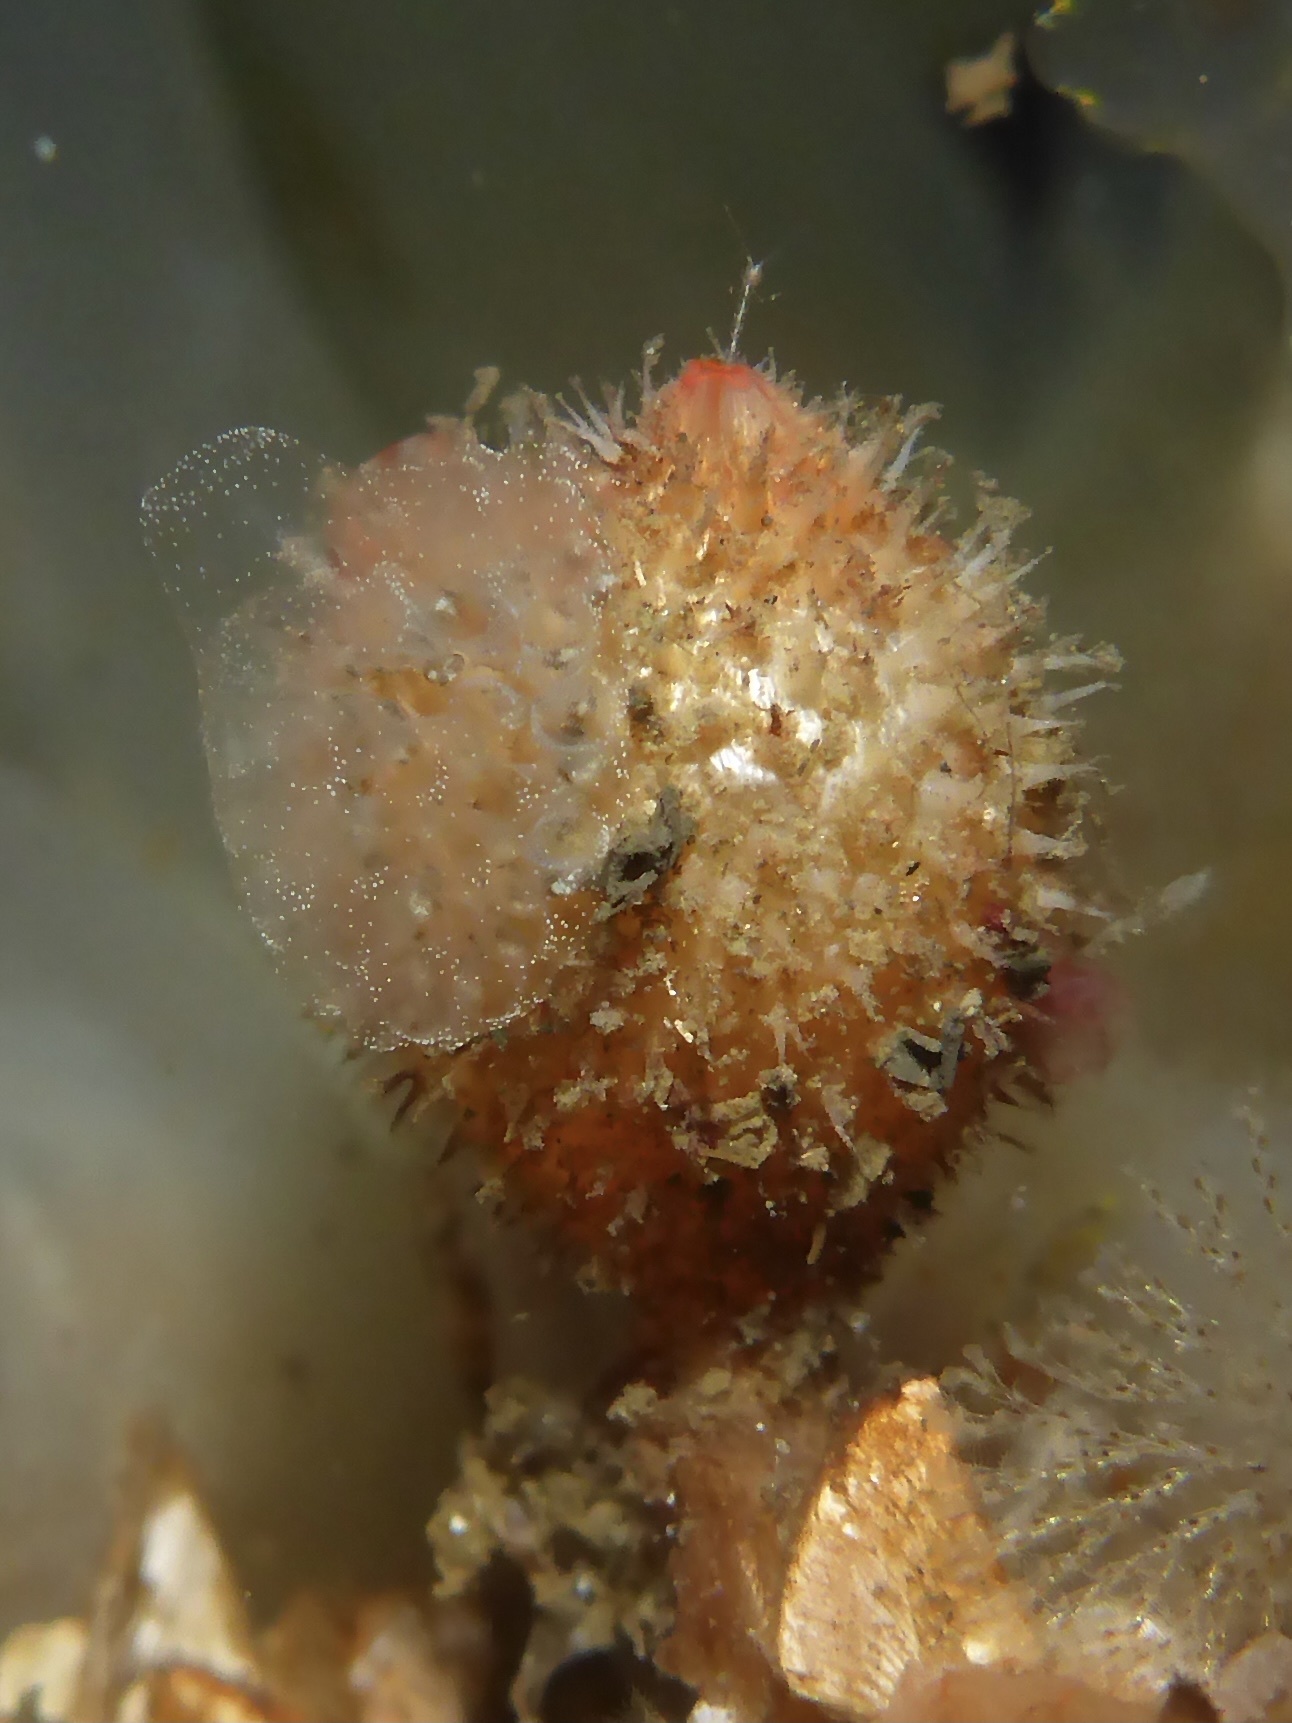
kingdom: Animalia
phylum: Chordata
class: Ascidiacea
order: Stolidobranchia
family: Pyuridae
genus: Boltenia
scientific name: Boltenia villosa
